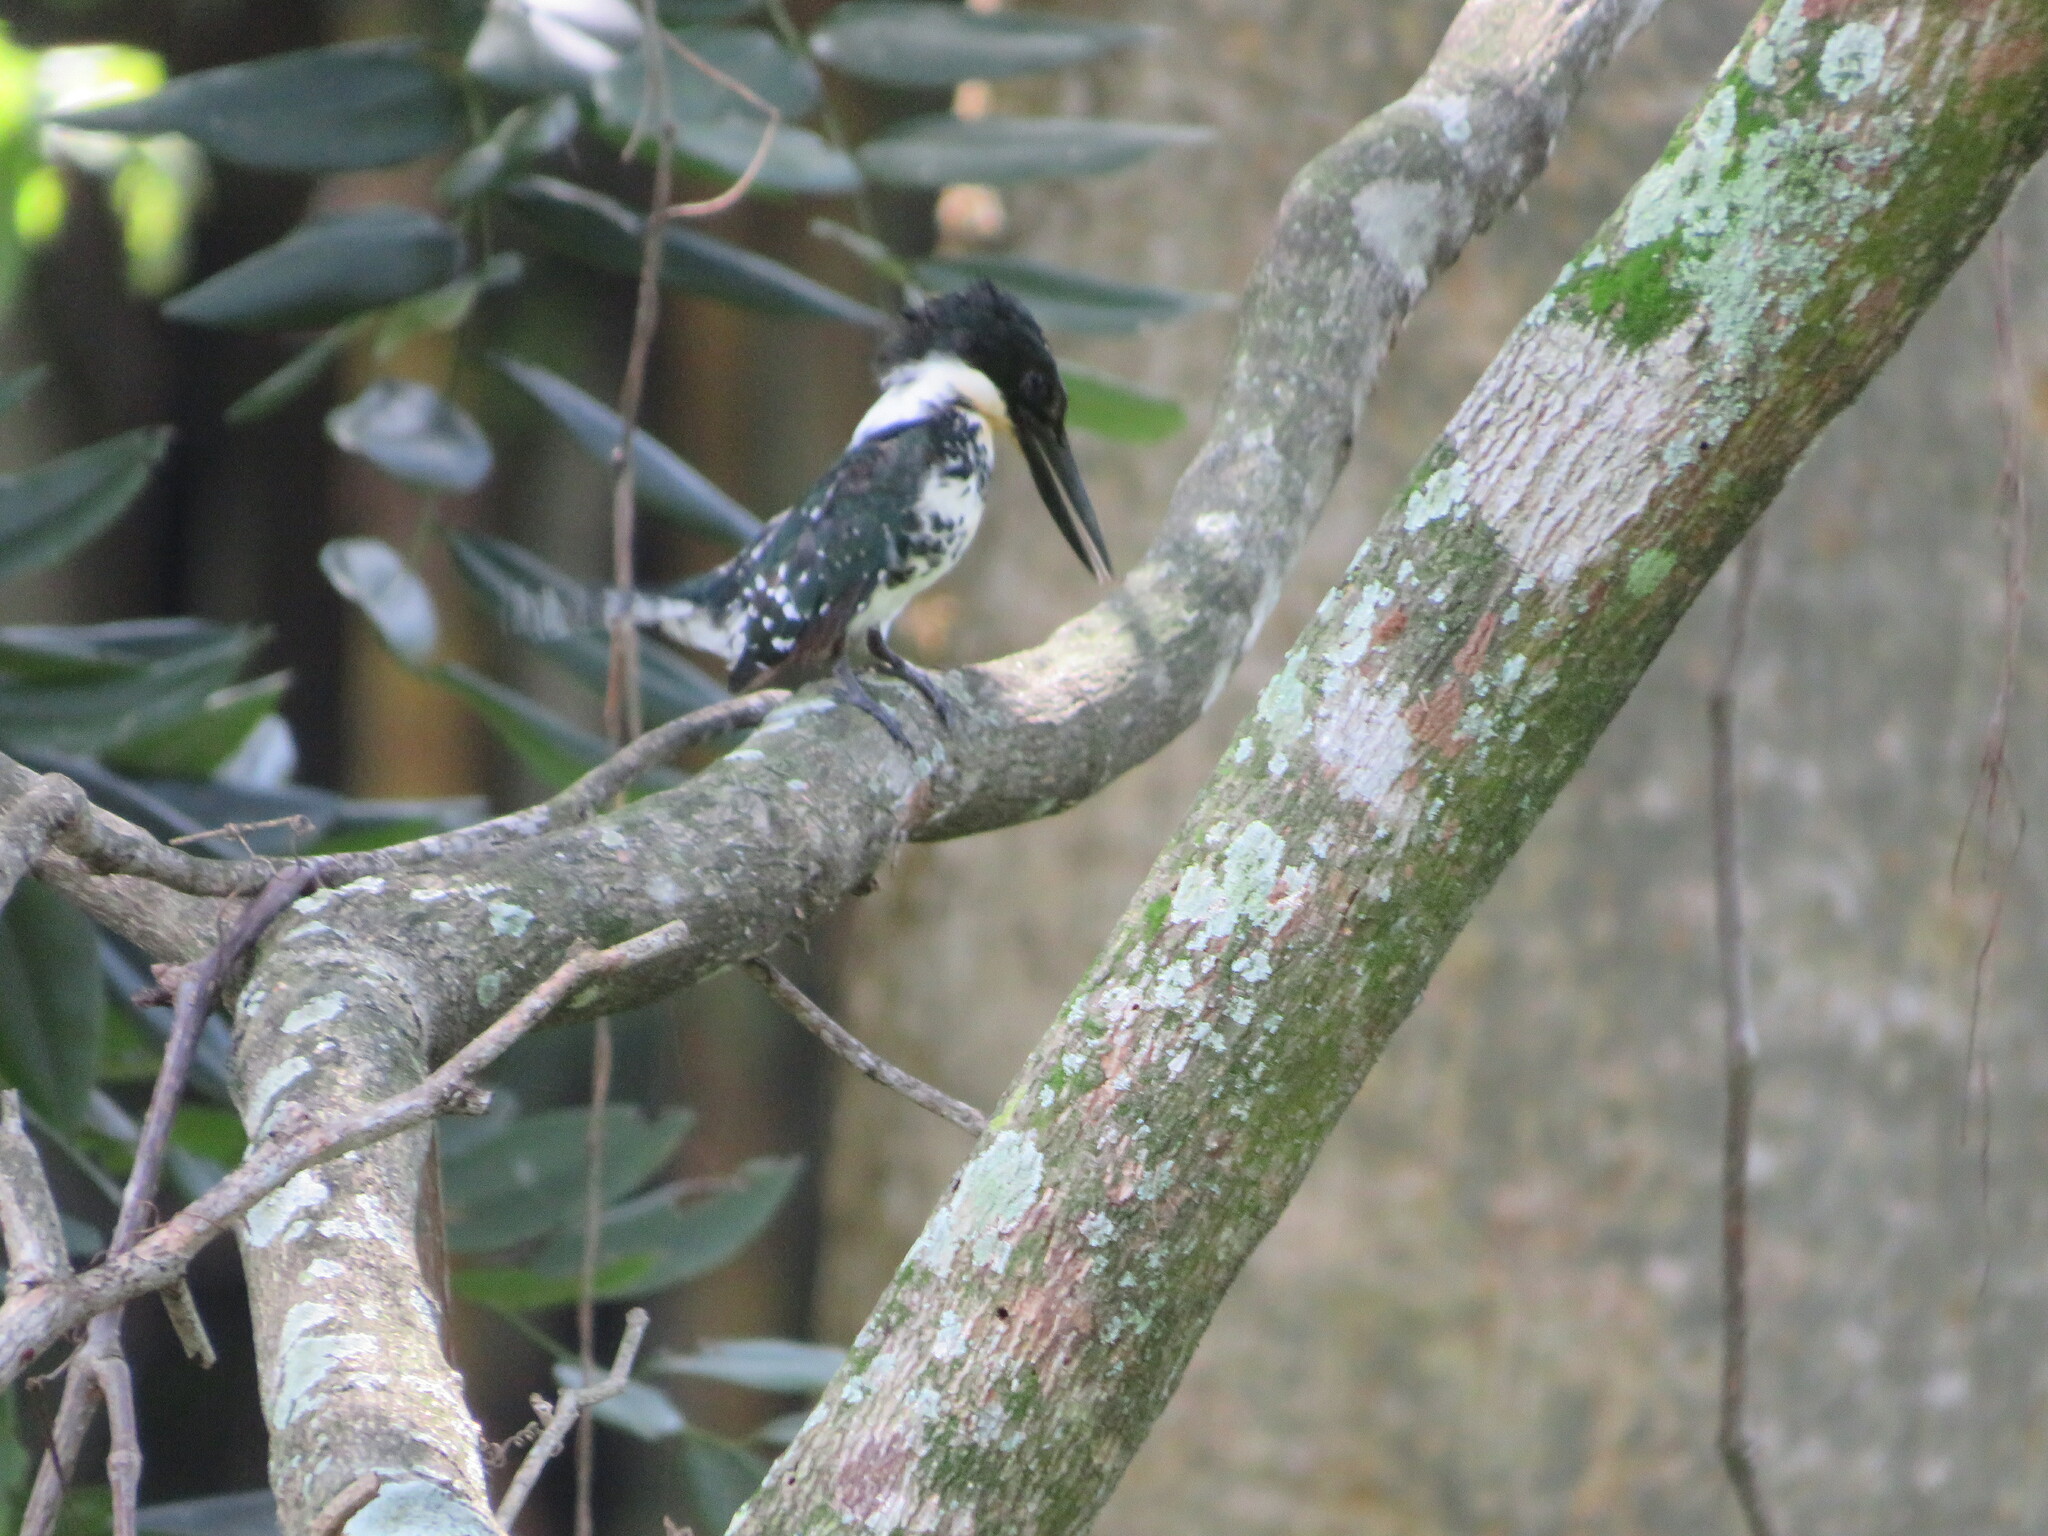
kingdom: Animalia
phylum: Chordata
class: Aves
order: Coraciiformes
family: Alcedinidae
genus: Chloroceryle
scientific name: Chloroceryle americana
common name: Green kingfisher
